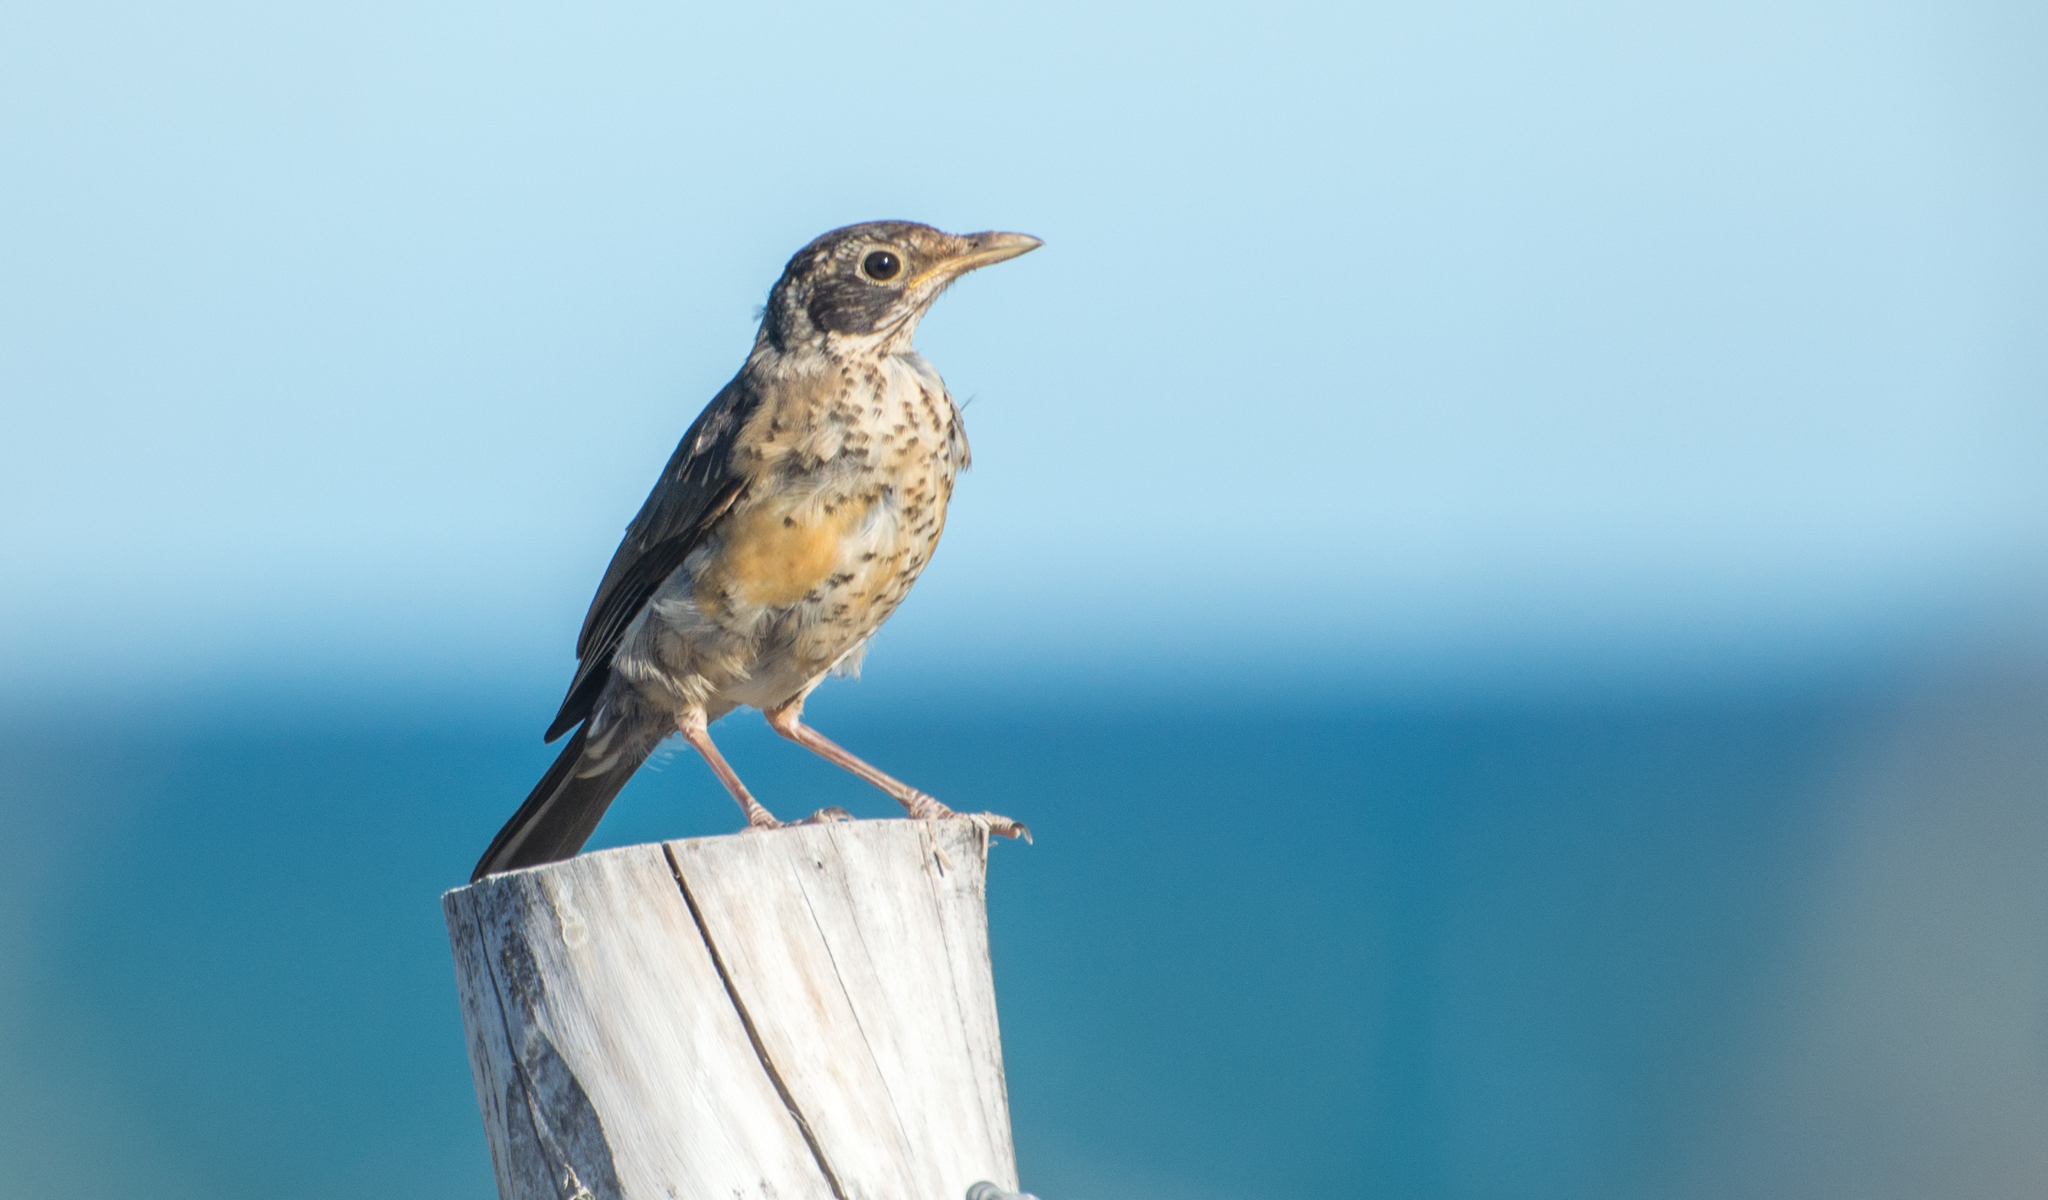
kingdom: Animalia
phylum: Chordata
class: Aves
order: Passeriformes
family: Turdidae
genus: Turdus
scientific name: Turdus falcklandii
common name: Austral thrush
